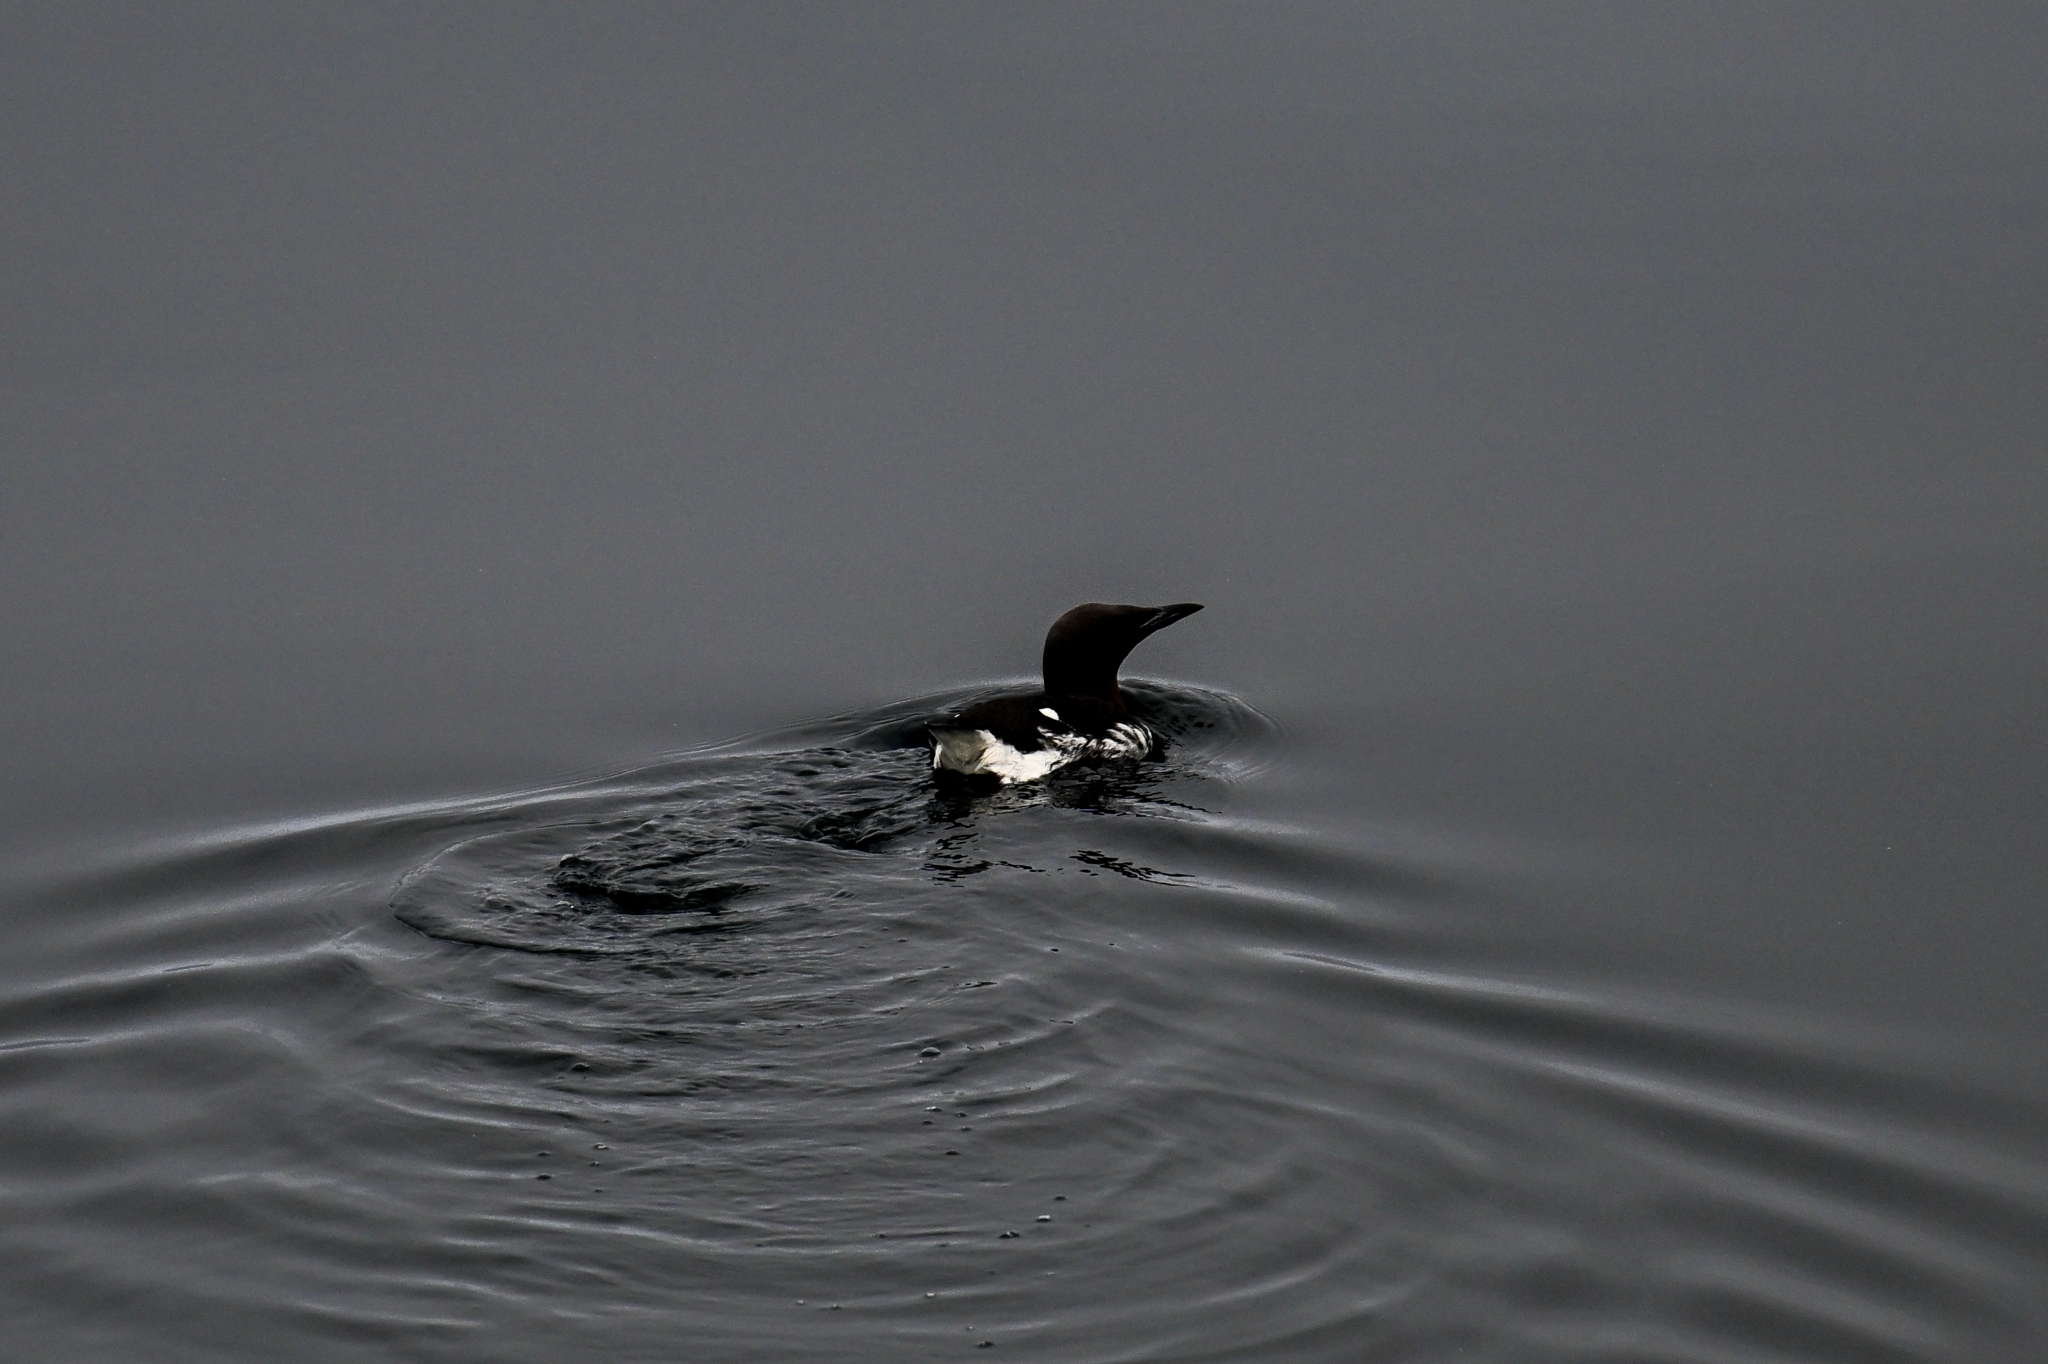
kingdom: Animalia
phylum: Chordata
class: Aves
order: Charadriiformes
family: Alcidae
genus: Uria
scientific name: Uria aalge
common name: Common murre
